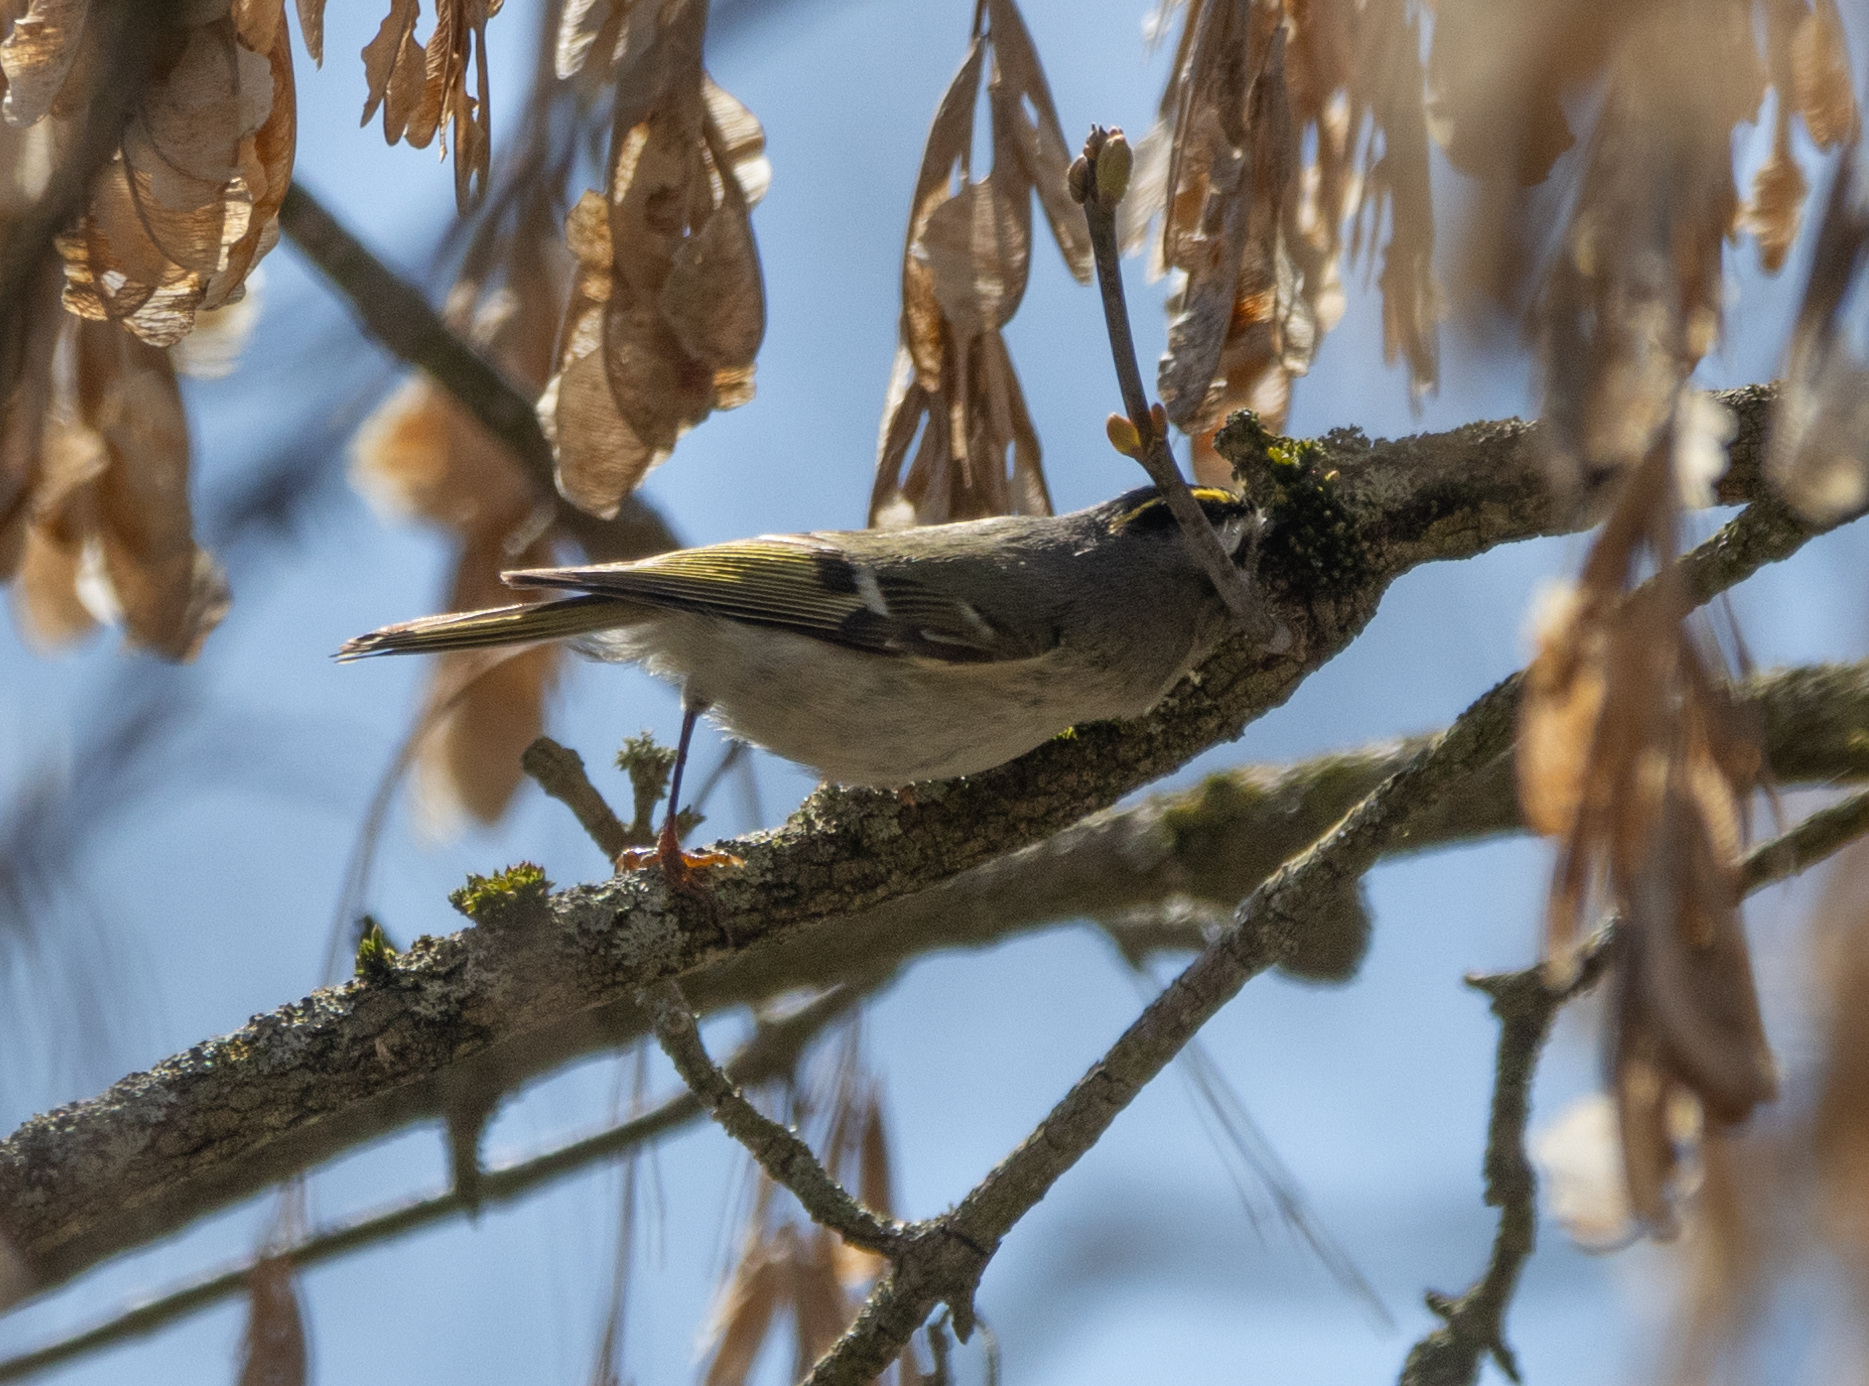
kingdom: Animalia
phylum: Chordata
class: Aves
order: Passeriformes
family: Regulidae
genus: Regulus
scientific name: Regulus satrapa
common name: Golden-crowned kinglet
